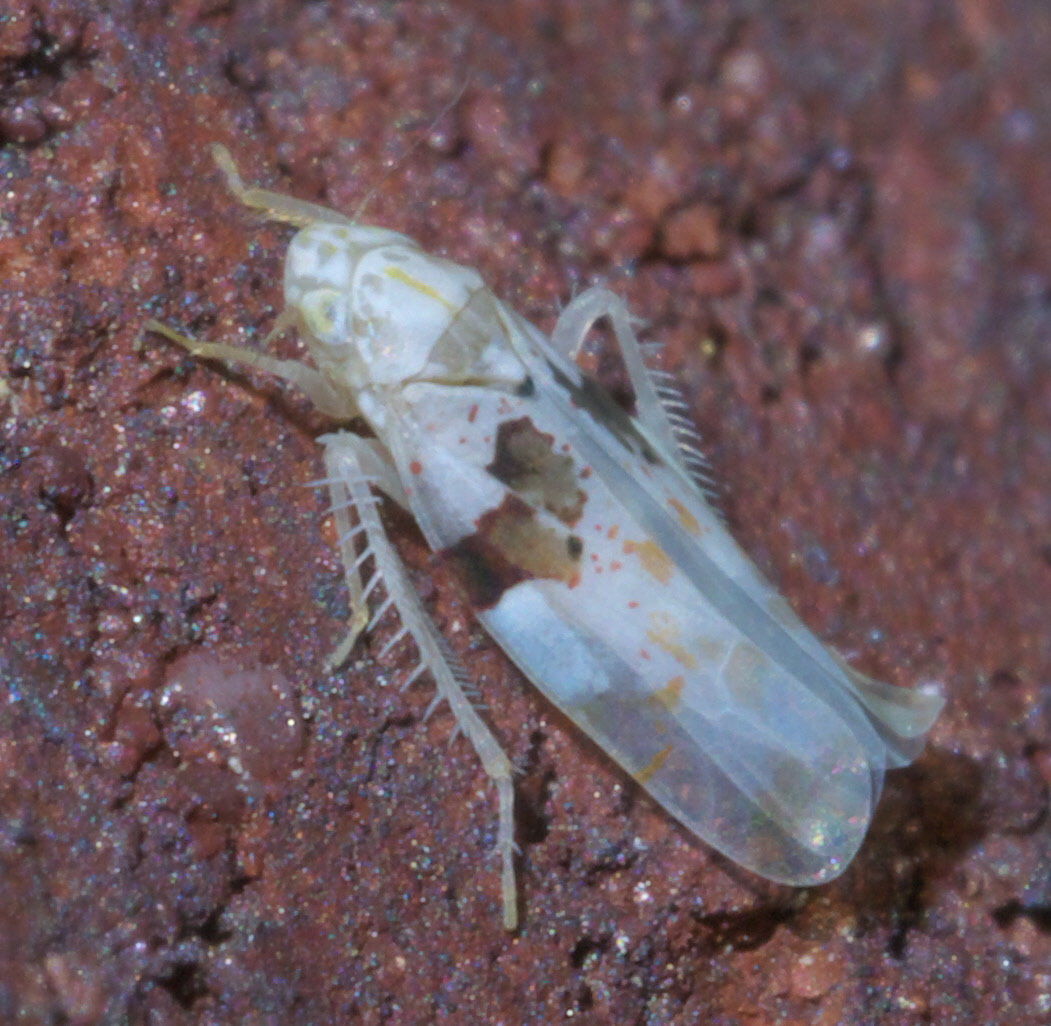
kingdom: Animalia
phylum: Arthropoda
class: Insecta
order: Hemiptera
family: Cicadellidae
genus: Hymetta
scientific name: Hymetta balteata
